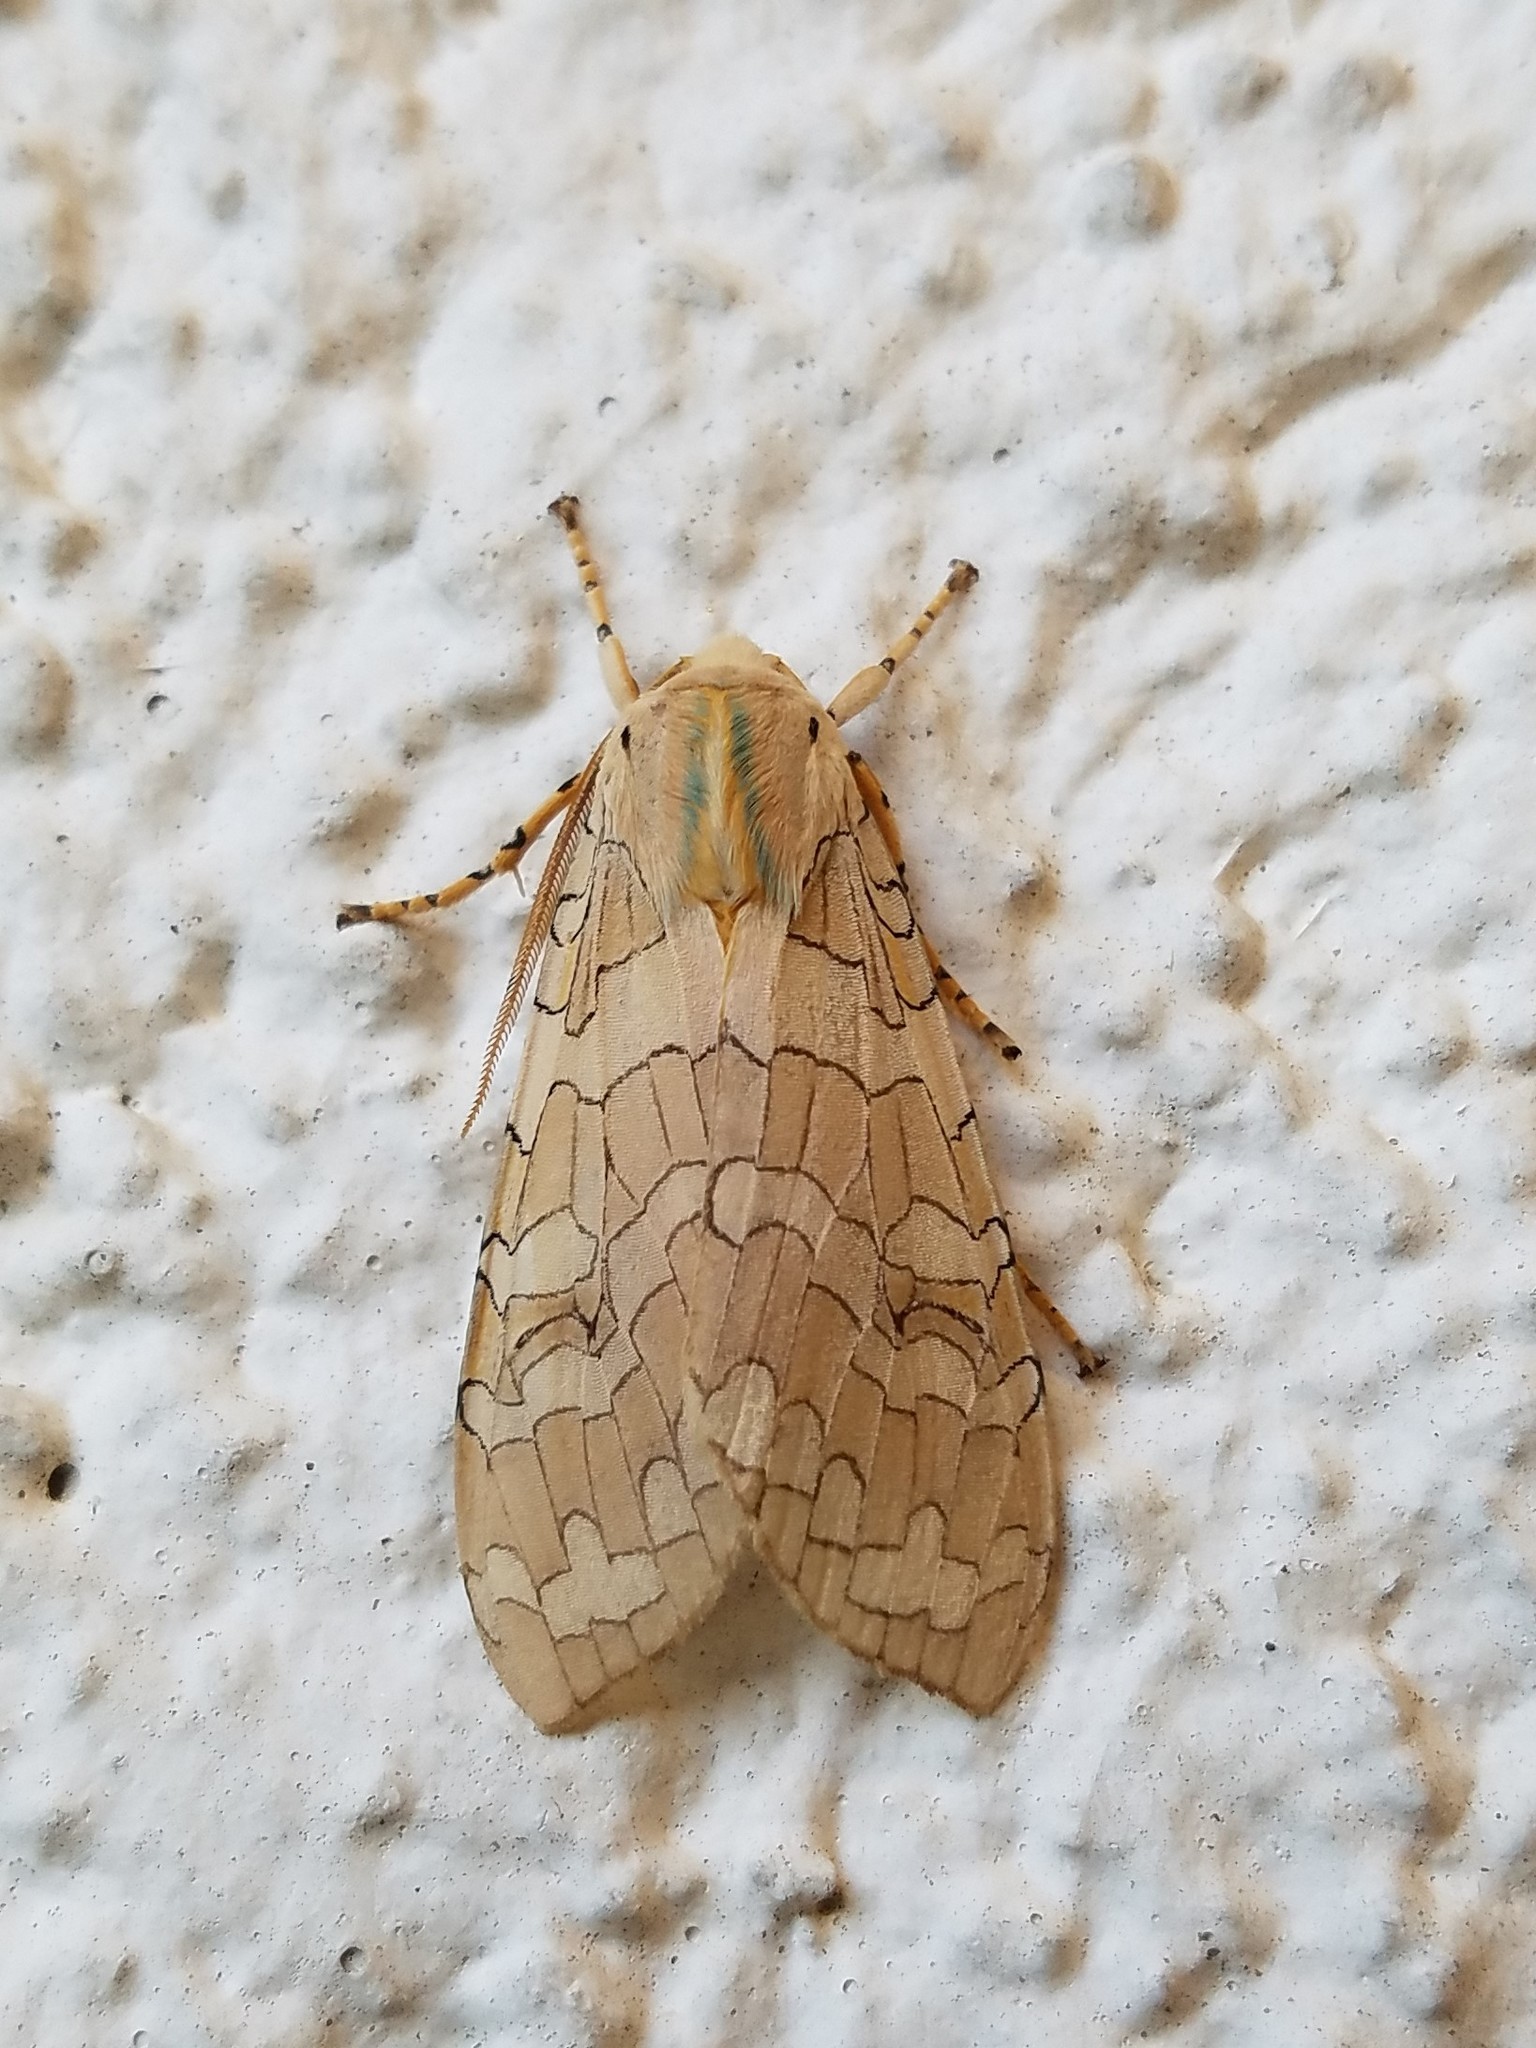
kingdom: Animalia
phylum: Arthropoda
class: Insecta
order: Lepidoptera
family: Erebidae
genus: Halysidota
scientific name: Halysidota
